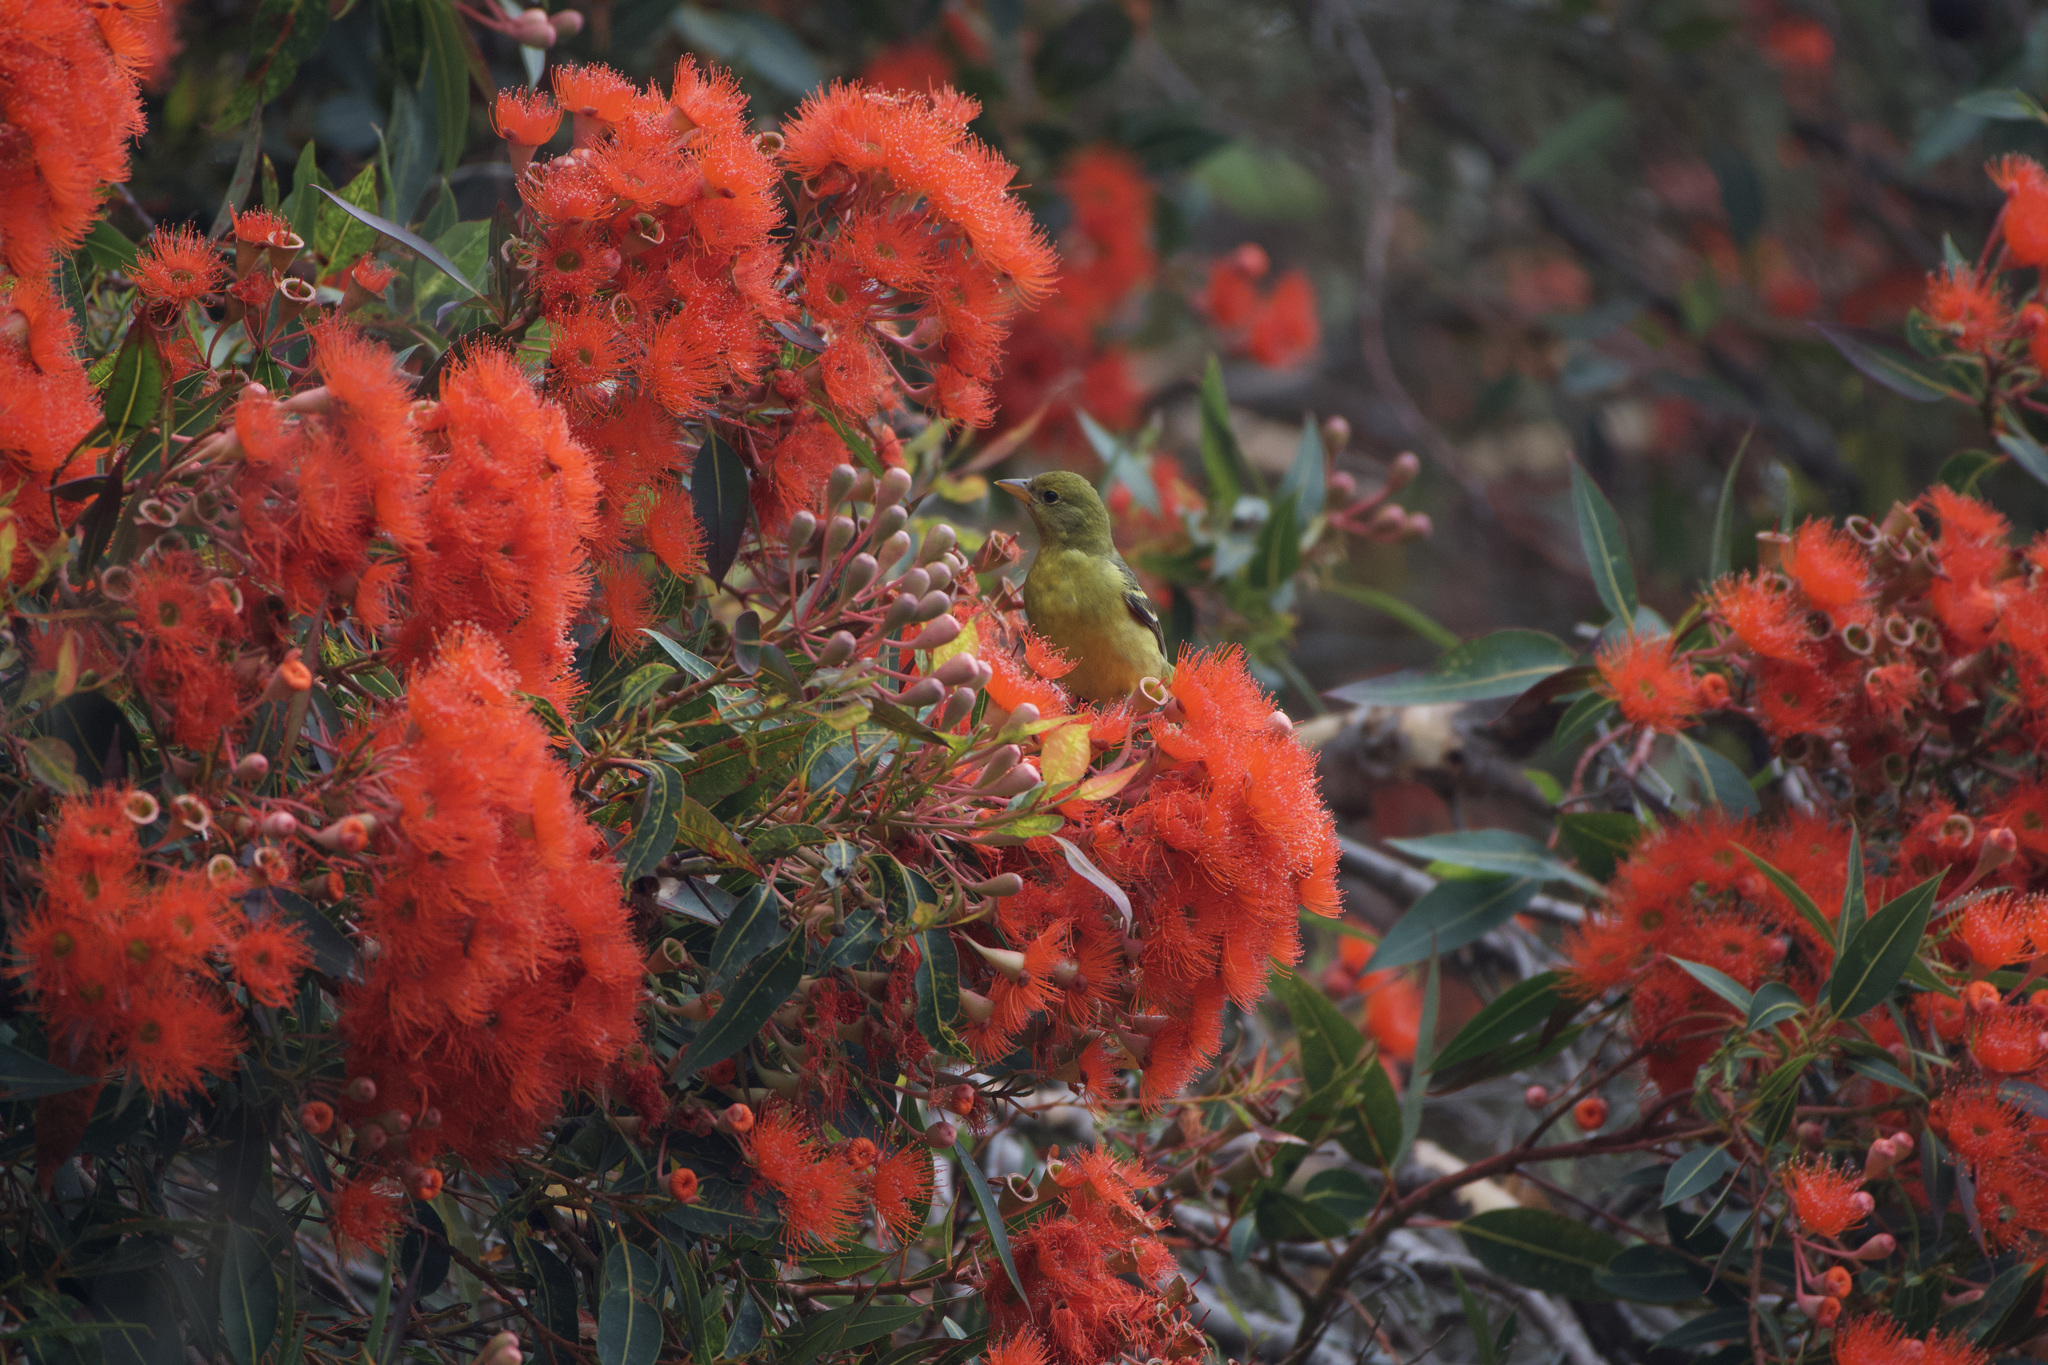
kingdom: Animalia
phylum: Chordata
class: Aves
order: Passeriformes
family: Cardinalidae
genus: Piranga
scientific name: Piranga ludoviciana
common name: Western tanager
